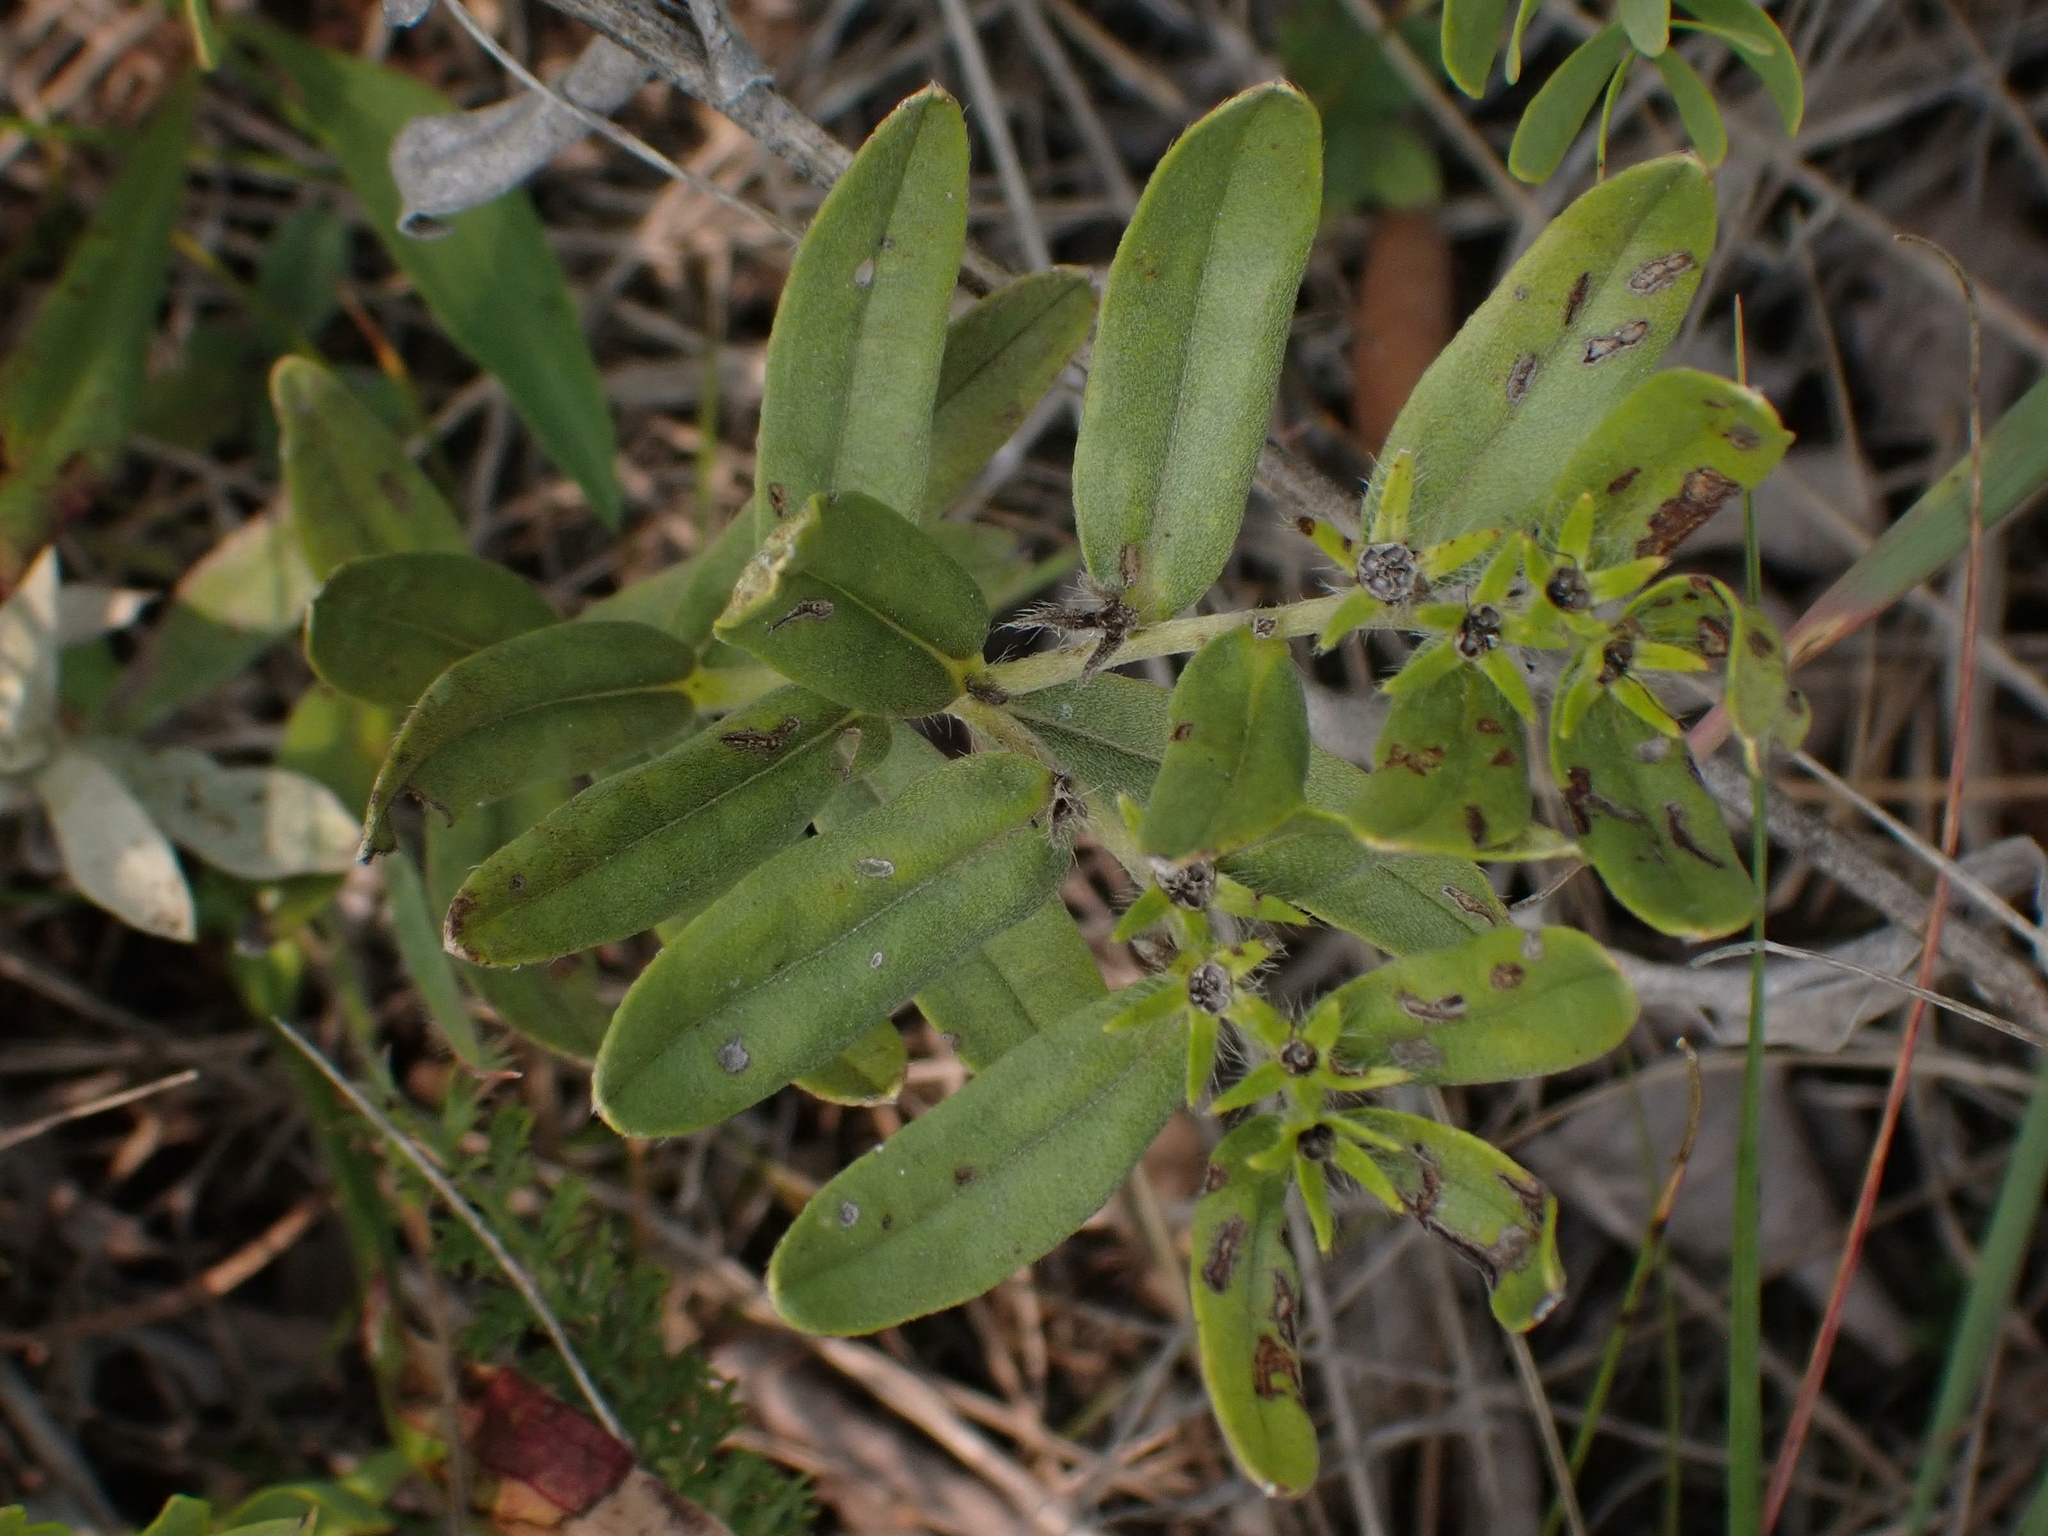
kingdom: Plantae
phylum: Tracheophyta
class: Magnoliopsida
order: Boraginales
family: Boraginaceae
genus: Lithospermum
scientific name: Lithospermum canescens
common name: Hoary puccoon
